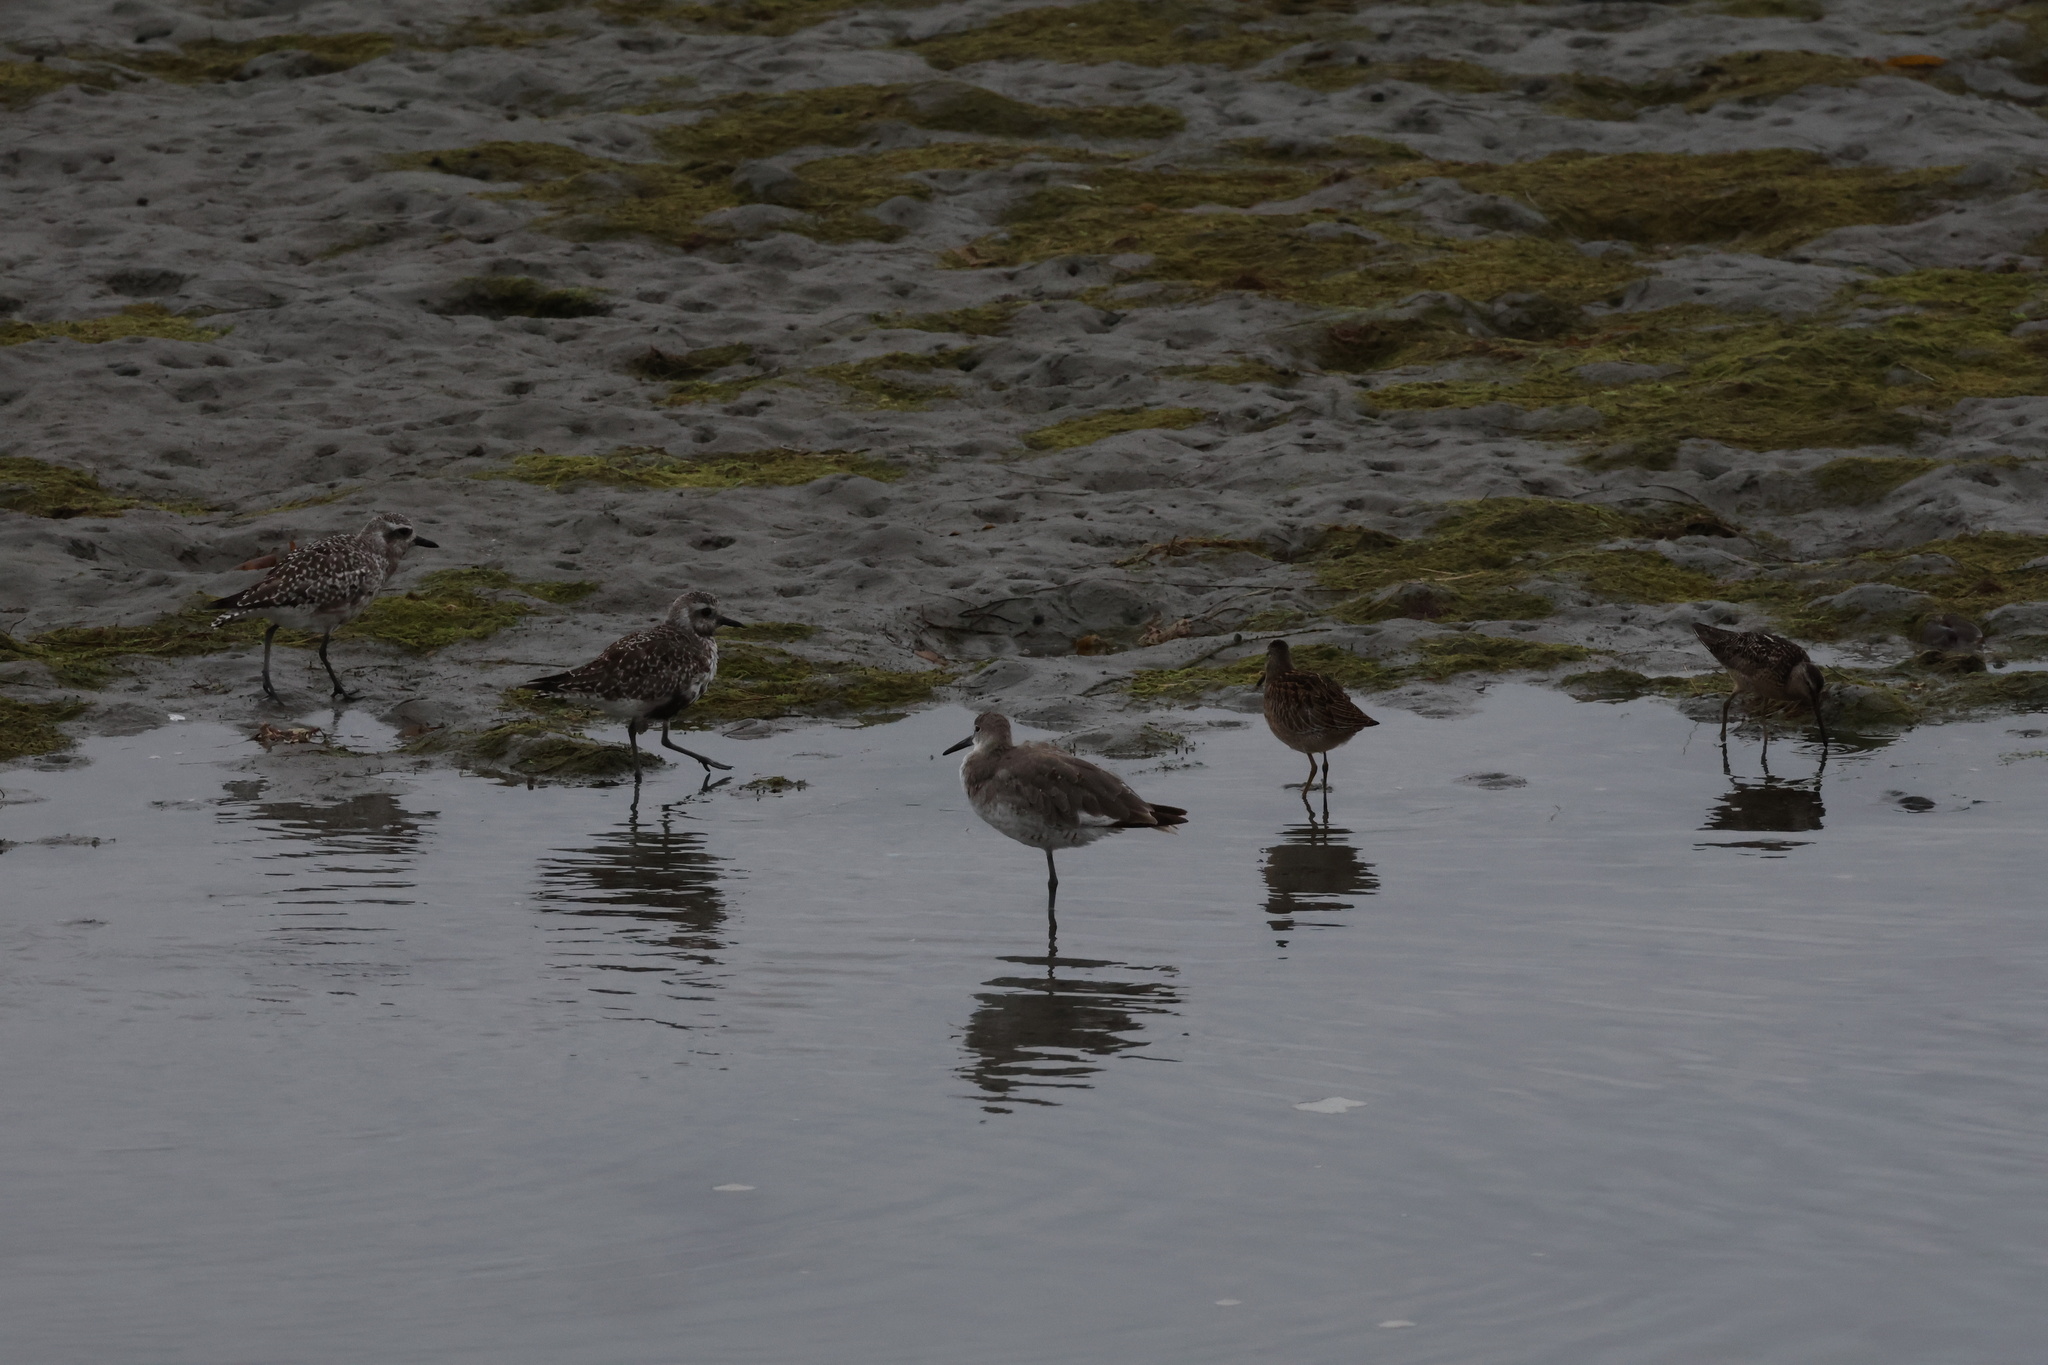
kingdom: Animalia
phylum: Chordata
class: Aves
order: Charadriiformes
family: Scolopacidae
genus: Tringa
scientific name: Tringa semipalmata
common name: Willet
